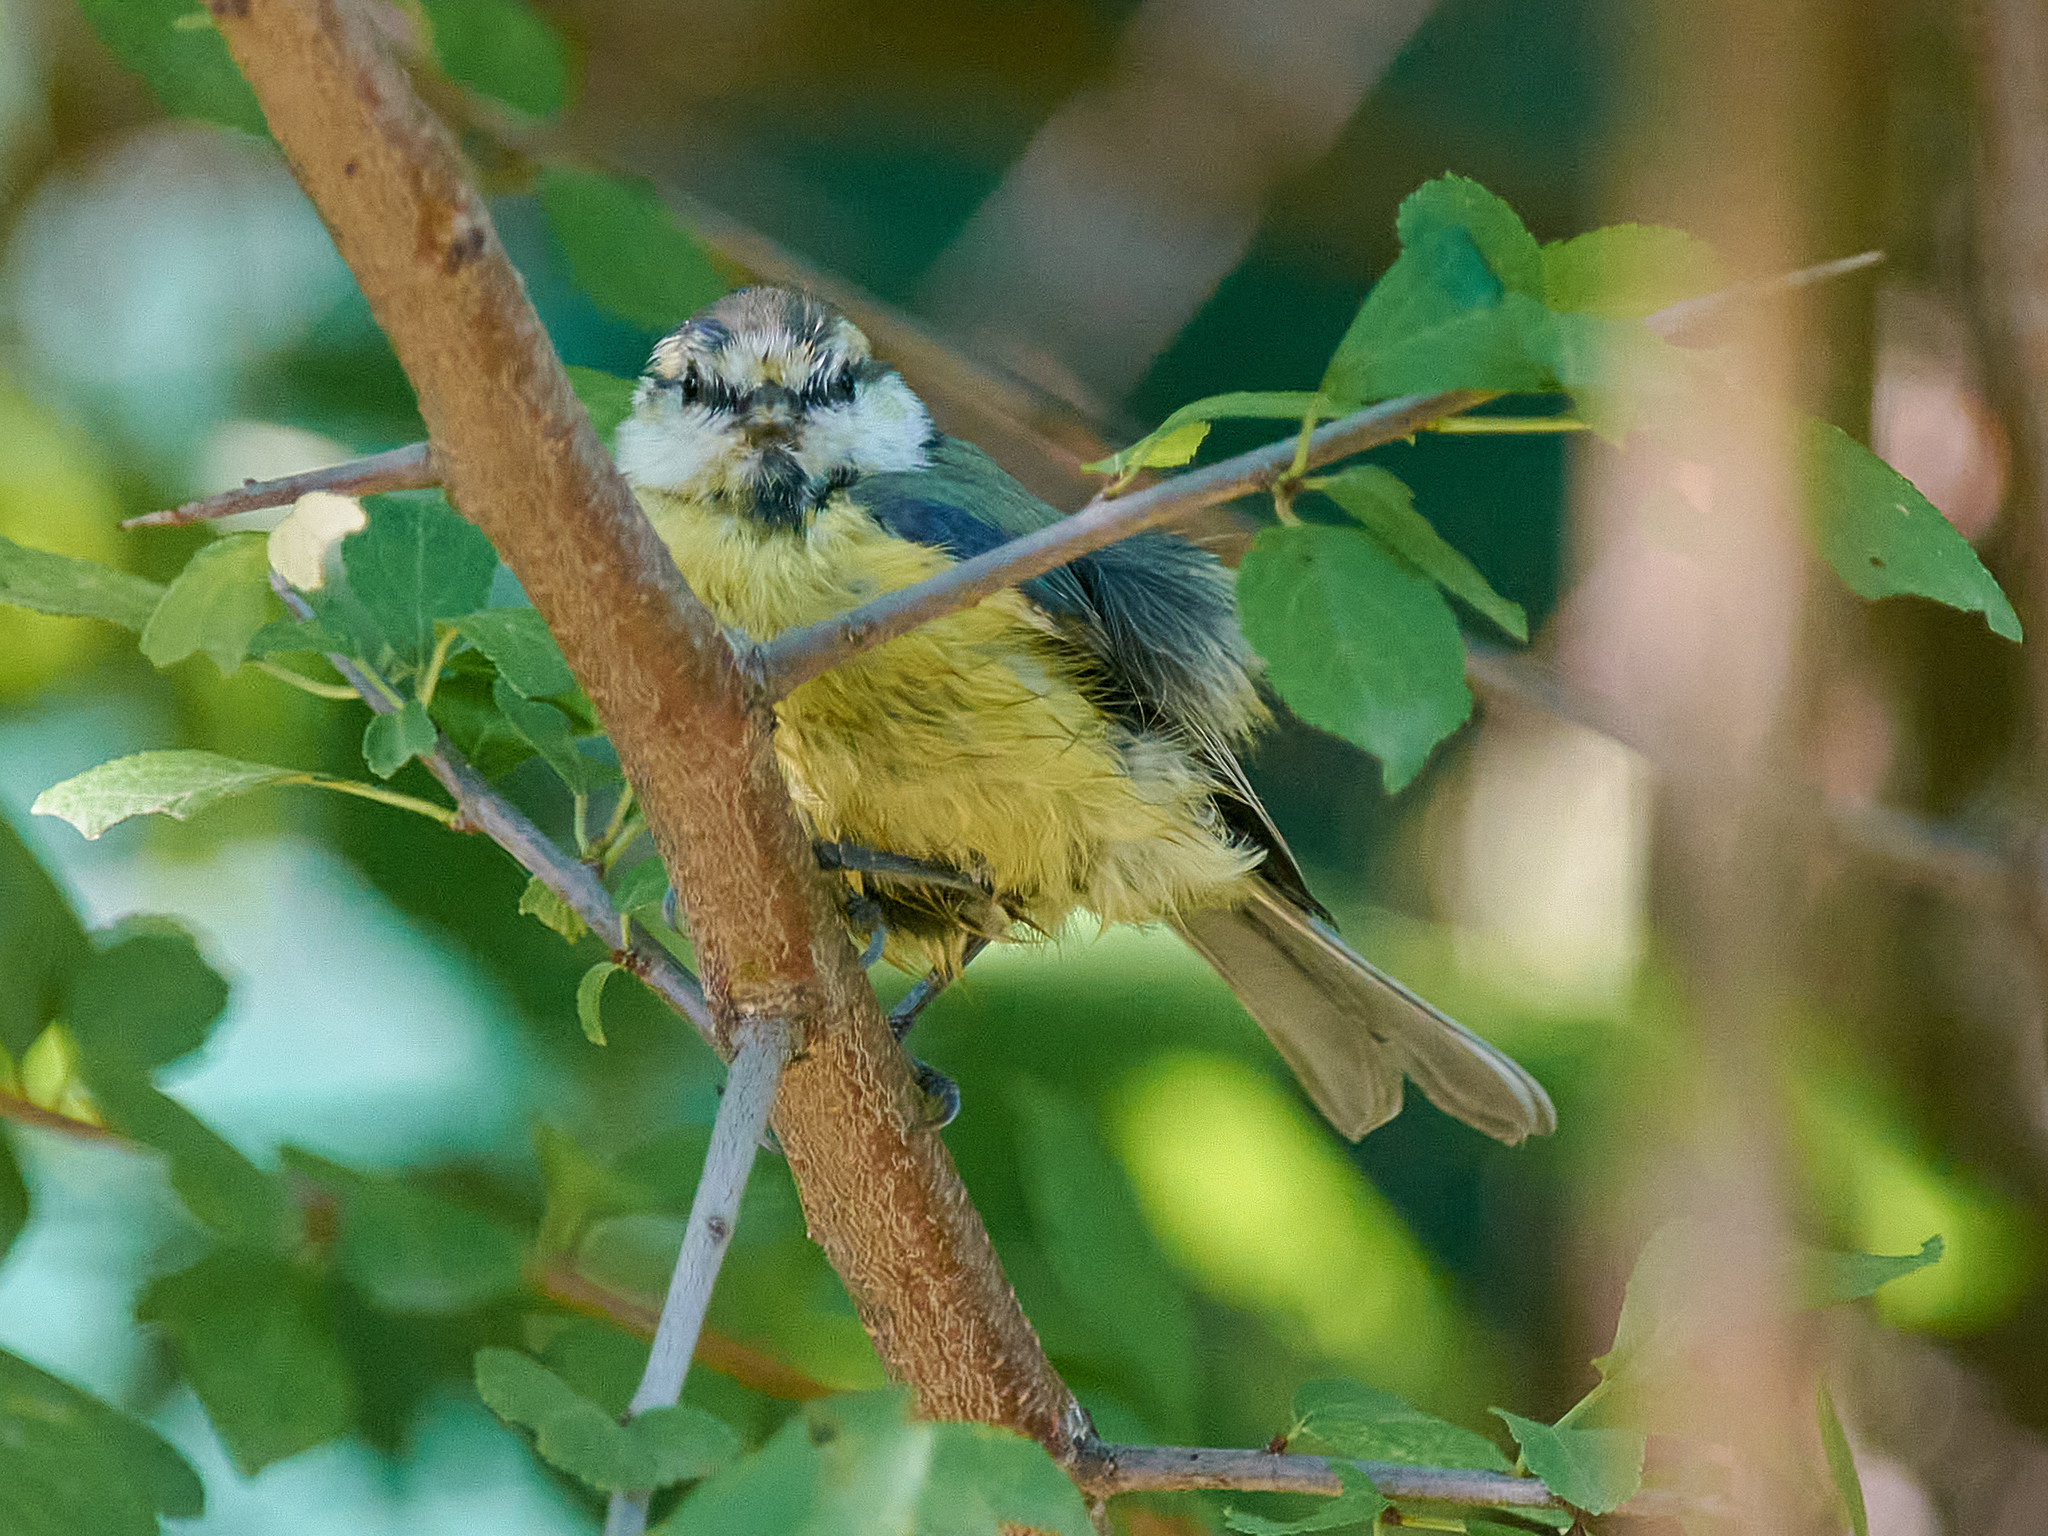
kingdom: Animalia
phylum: Chordata
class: Aves
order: Passeriformes
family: Paridae
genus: Cyanistes
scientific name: Cyanistes caeruleus
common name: Eurasian blue tit
